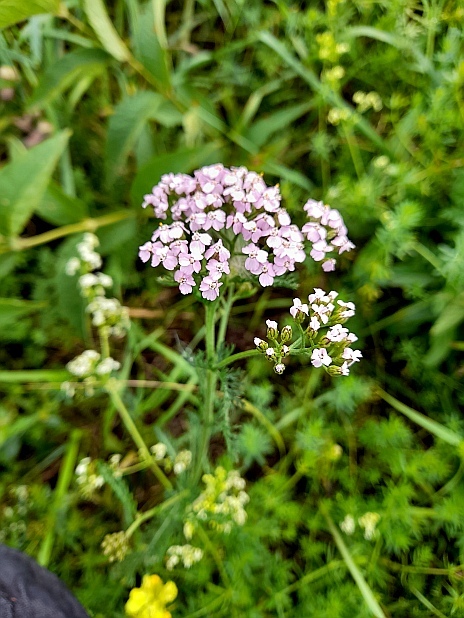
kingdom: Plantae
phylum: Tracheophyta
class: Magnoliopsida
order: Asterales
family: Asteraceae
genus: Achillea
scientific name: Achillea millefolium
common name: Yarrow
